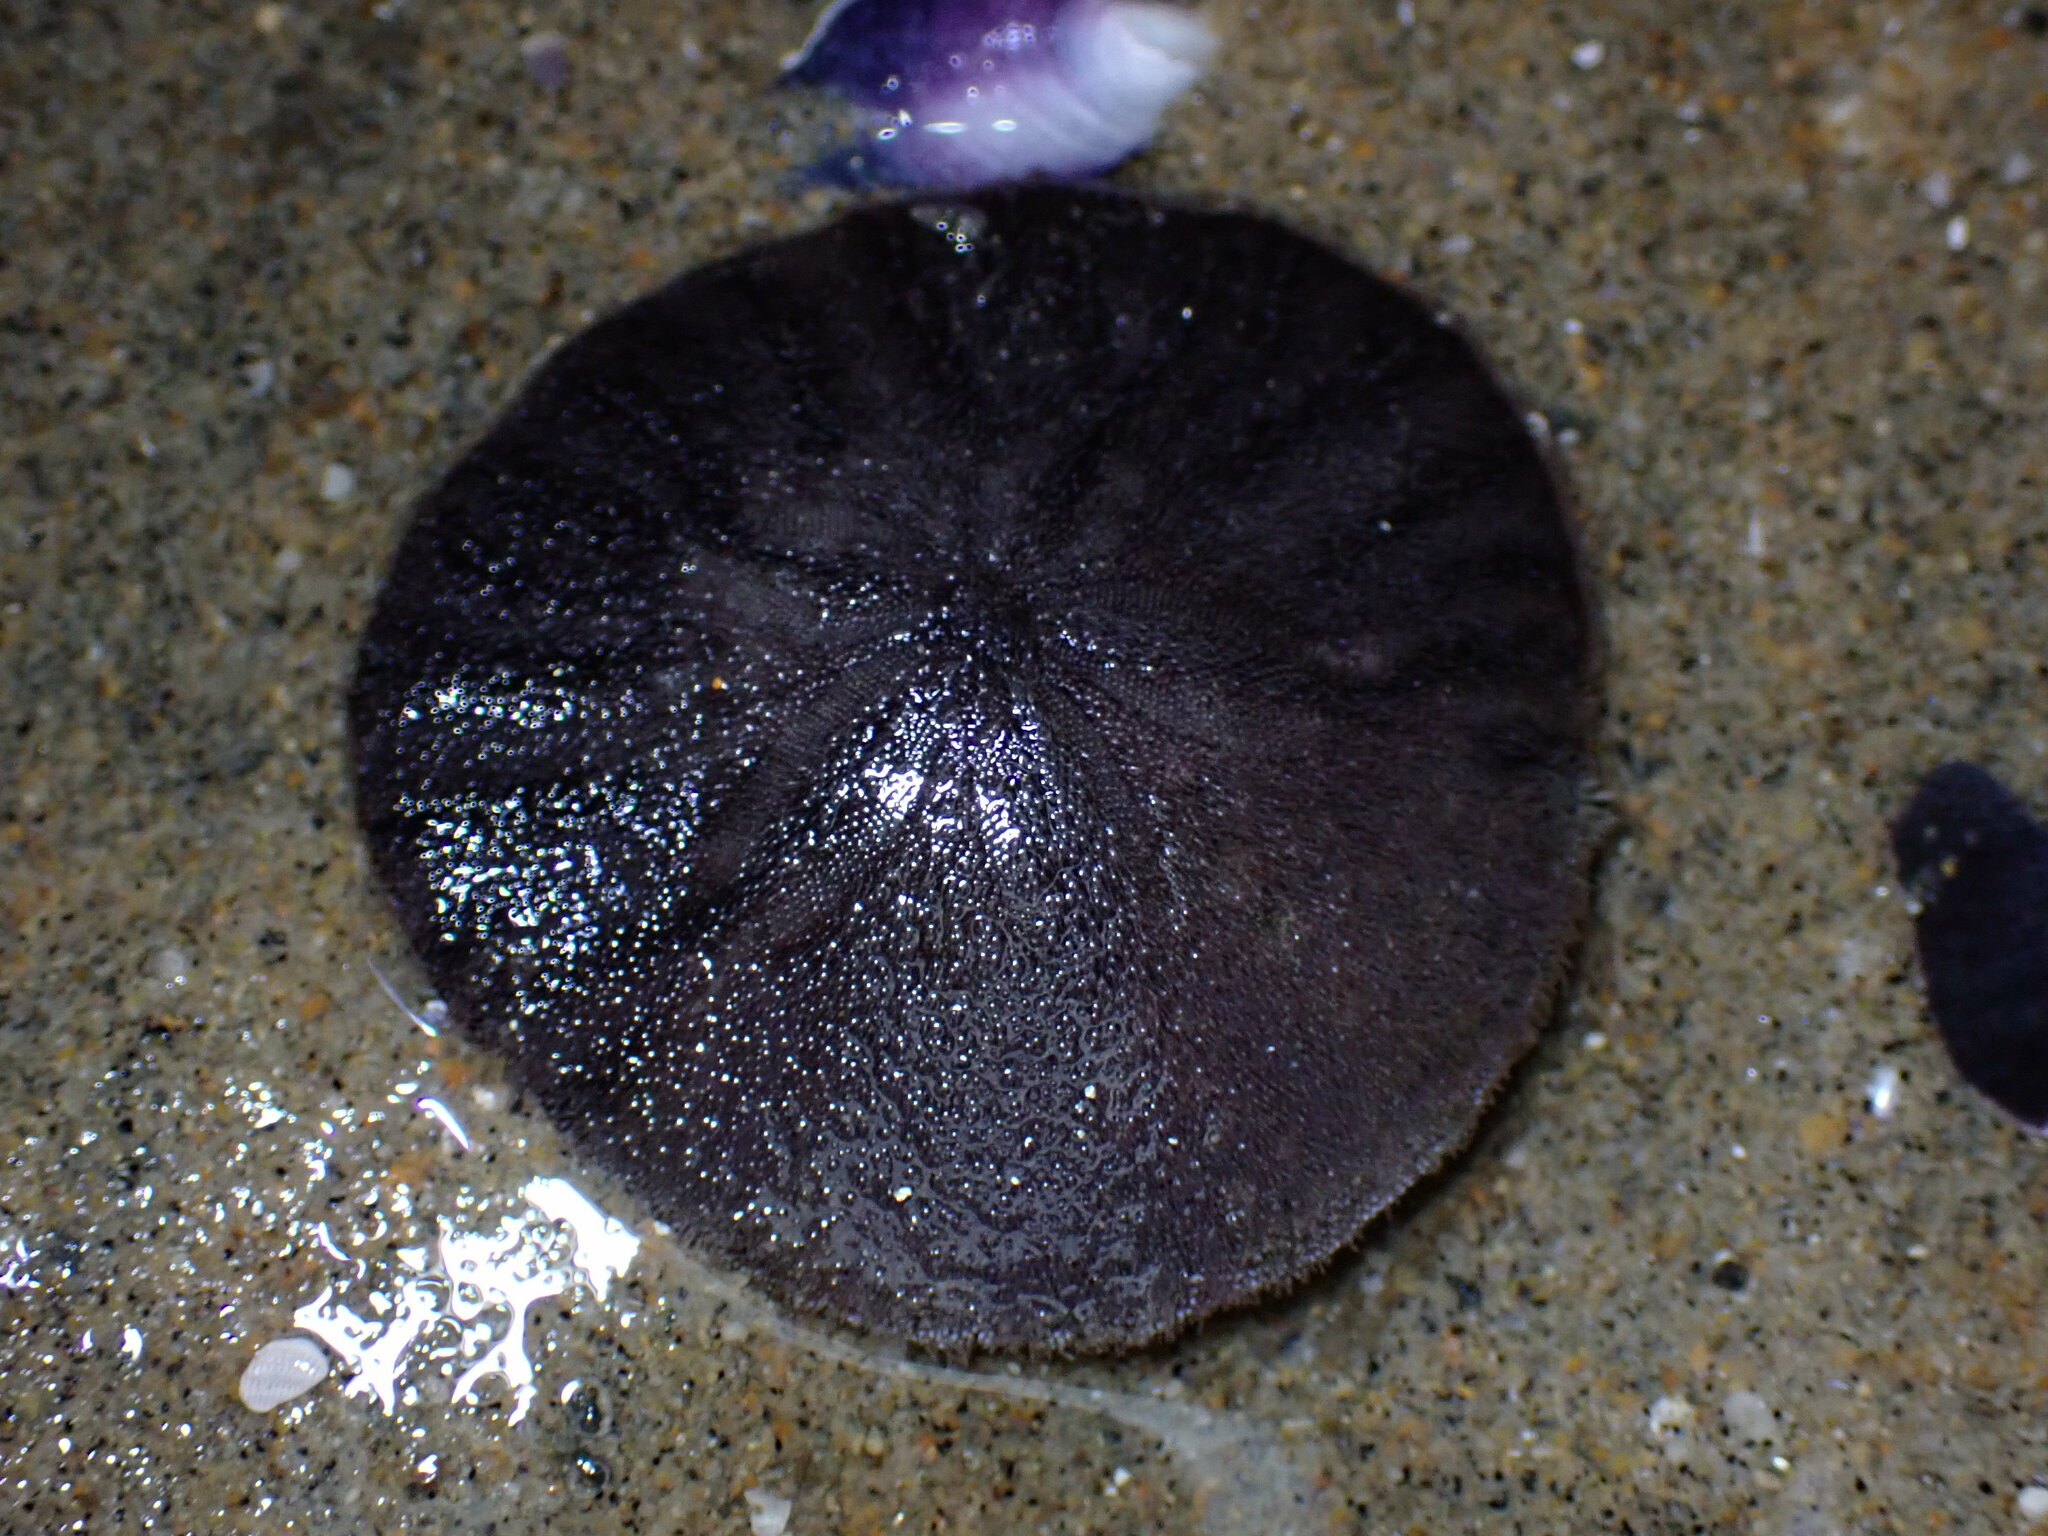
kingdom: Animalia
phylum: Echinodermata
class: Echinoidea
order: Echinolampadacea
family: Dendrasteridae
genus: Dendraster
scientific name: Dendraster excentricus
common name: Eccentric sand dollar sea urchin
